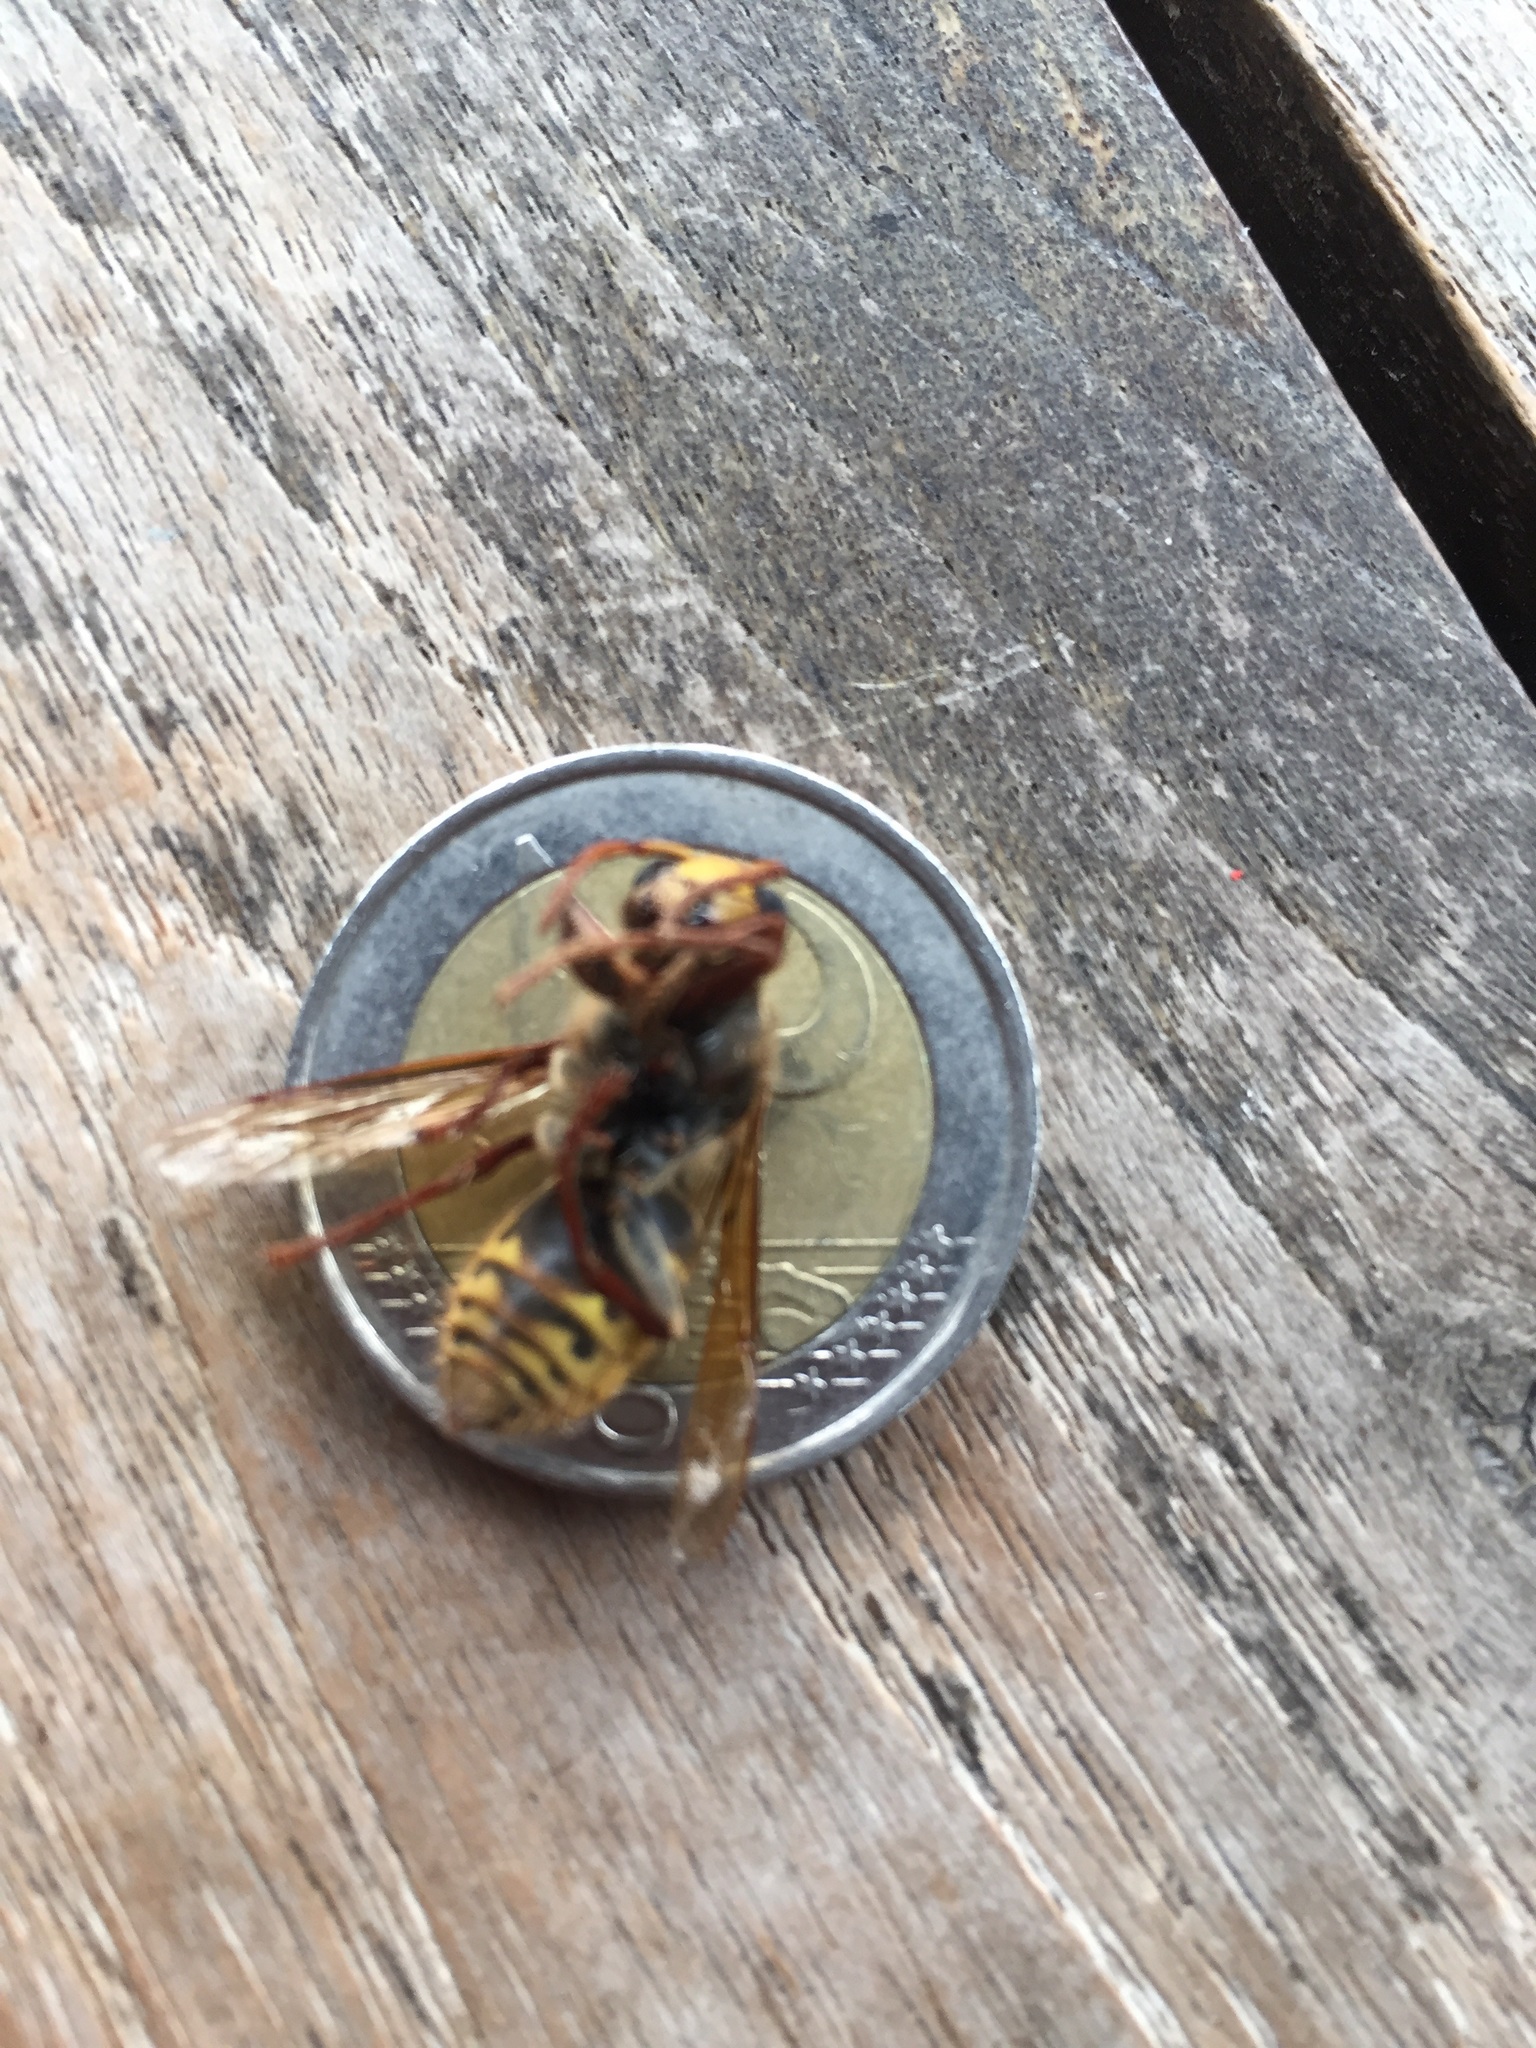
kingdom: Animalia
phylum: Arthropoda
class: Insecta
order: Hymenoptera
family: Vespidae
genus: Vespa
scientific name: Vespa crabro
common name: Hornet
